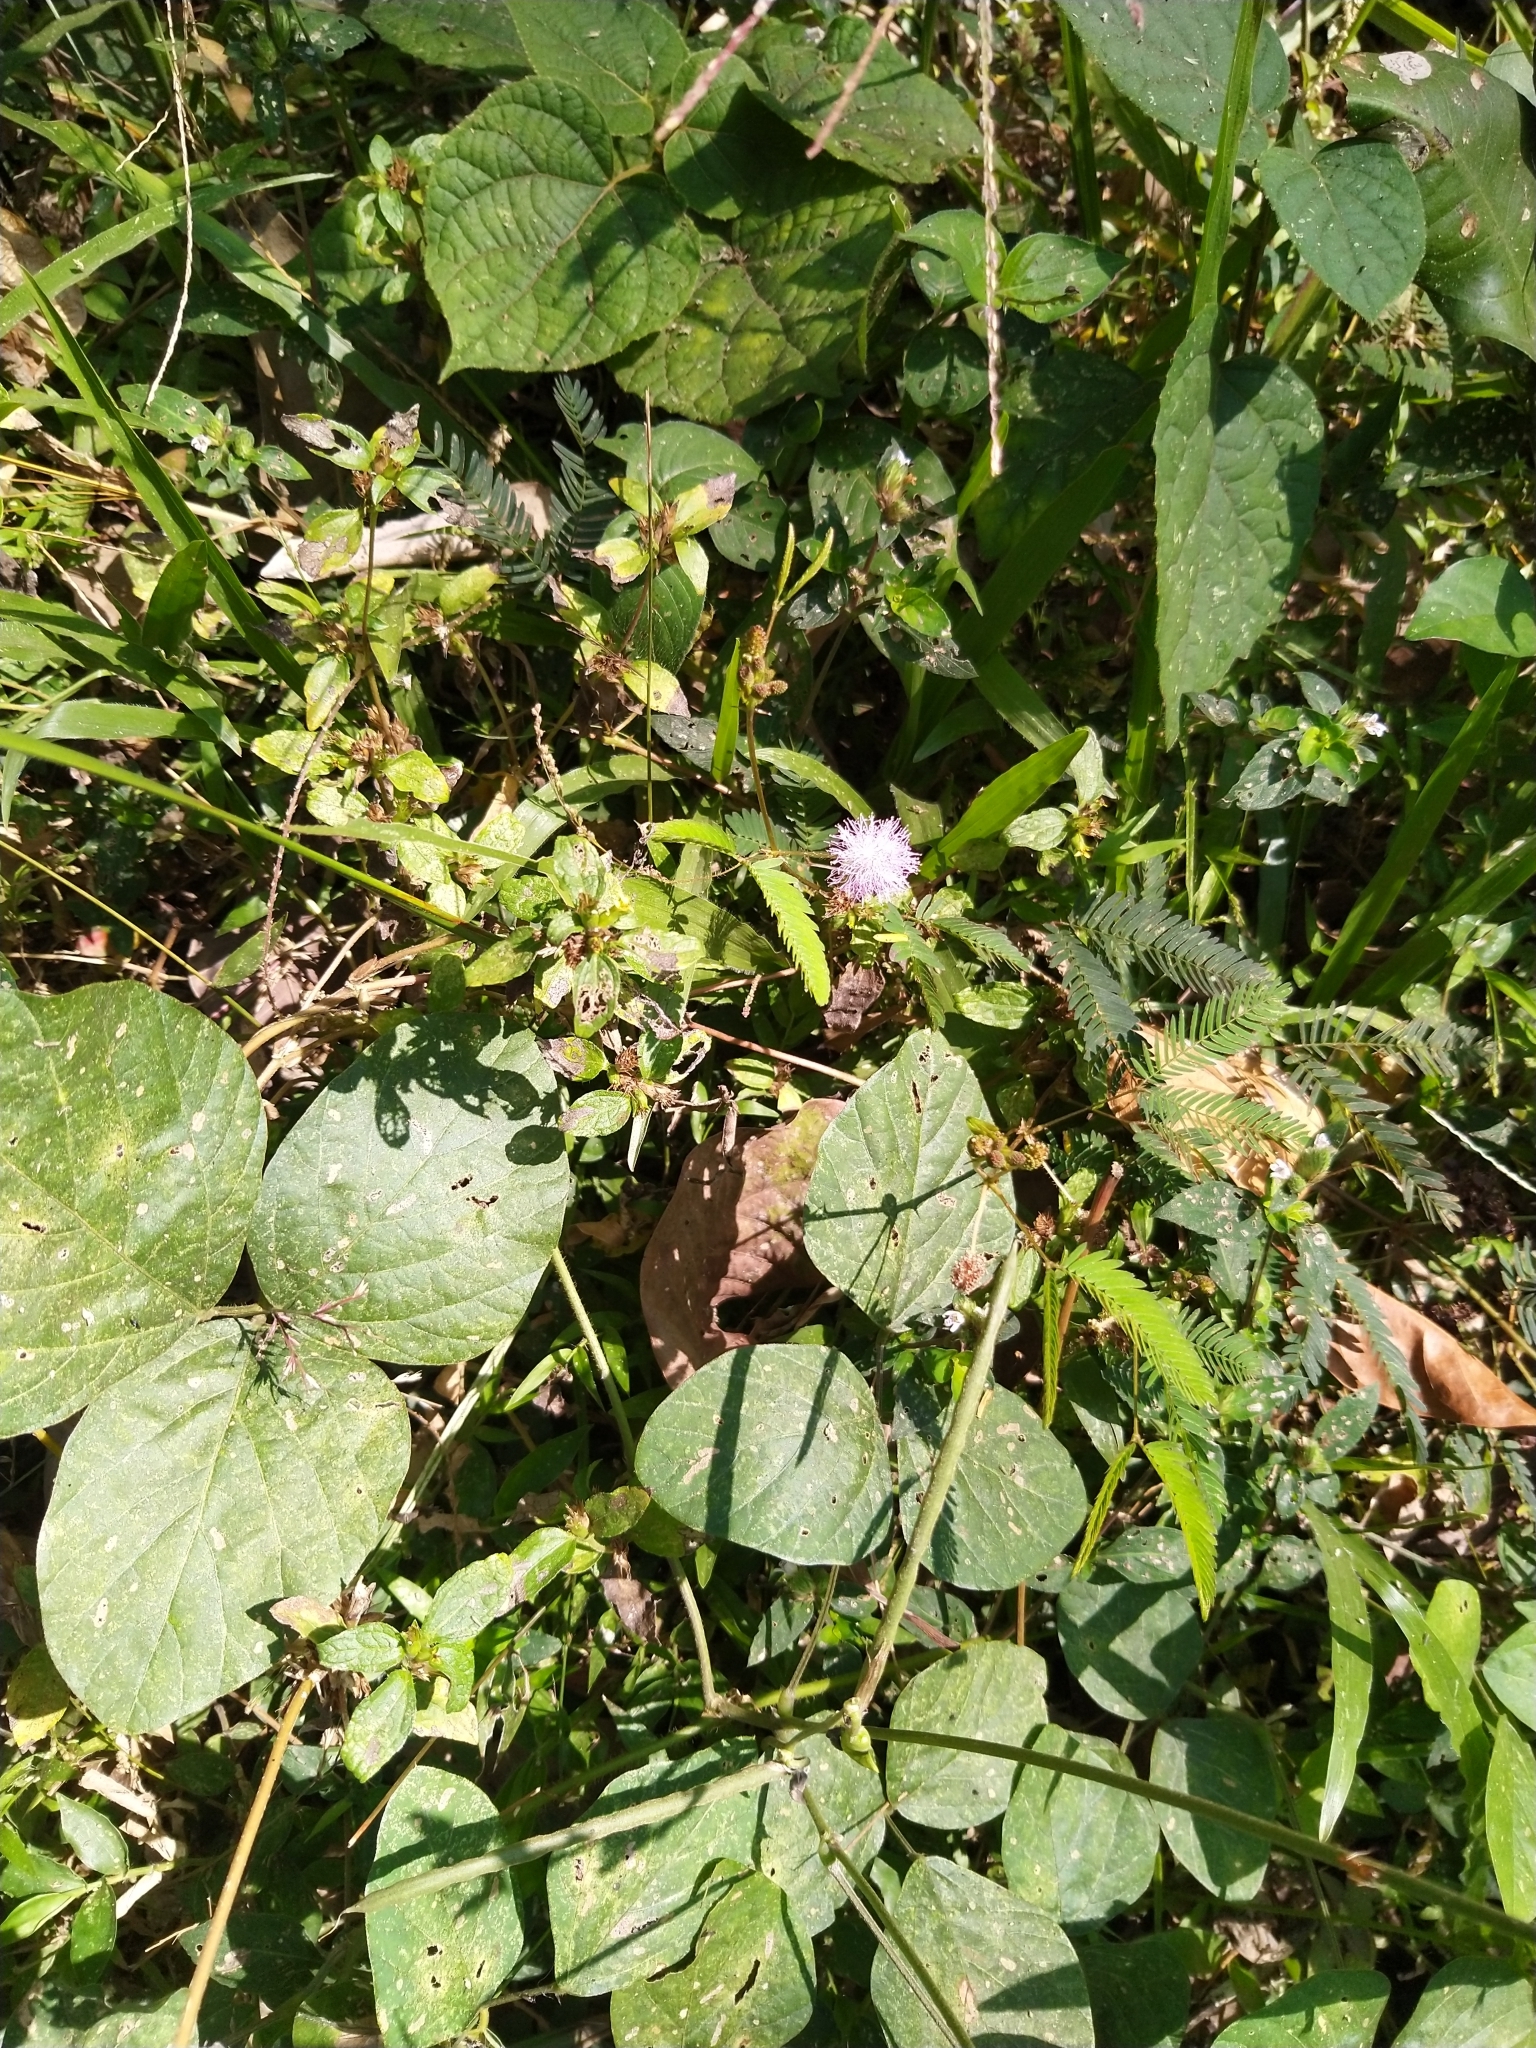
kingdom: Plantae
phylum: Tracheophyta
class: Magnoliopsida
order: Fabales
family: Fabaceae
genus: Mimosa
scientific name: Mimosa pudica
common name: Sensitive plant
